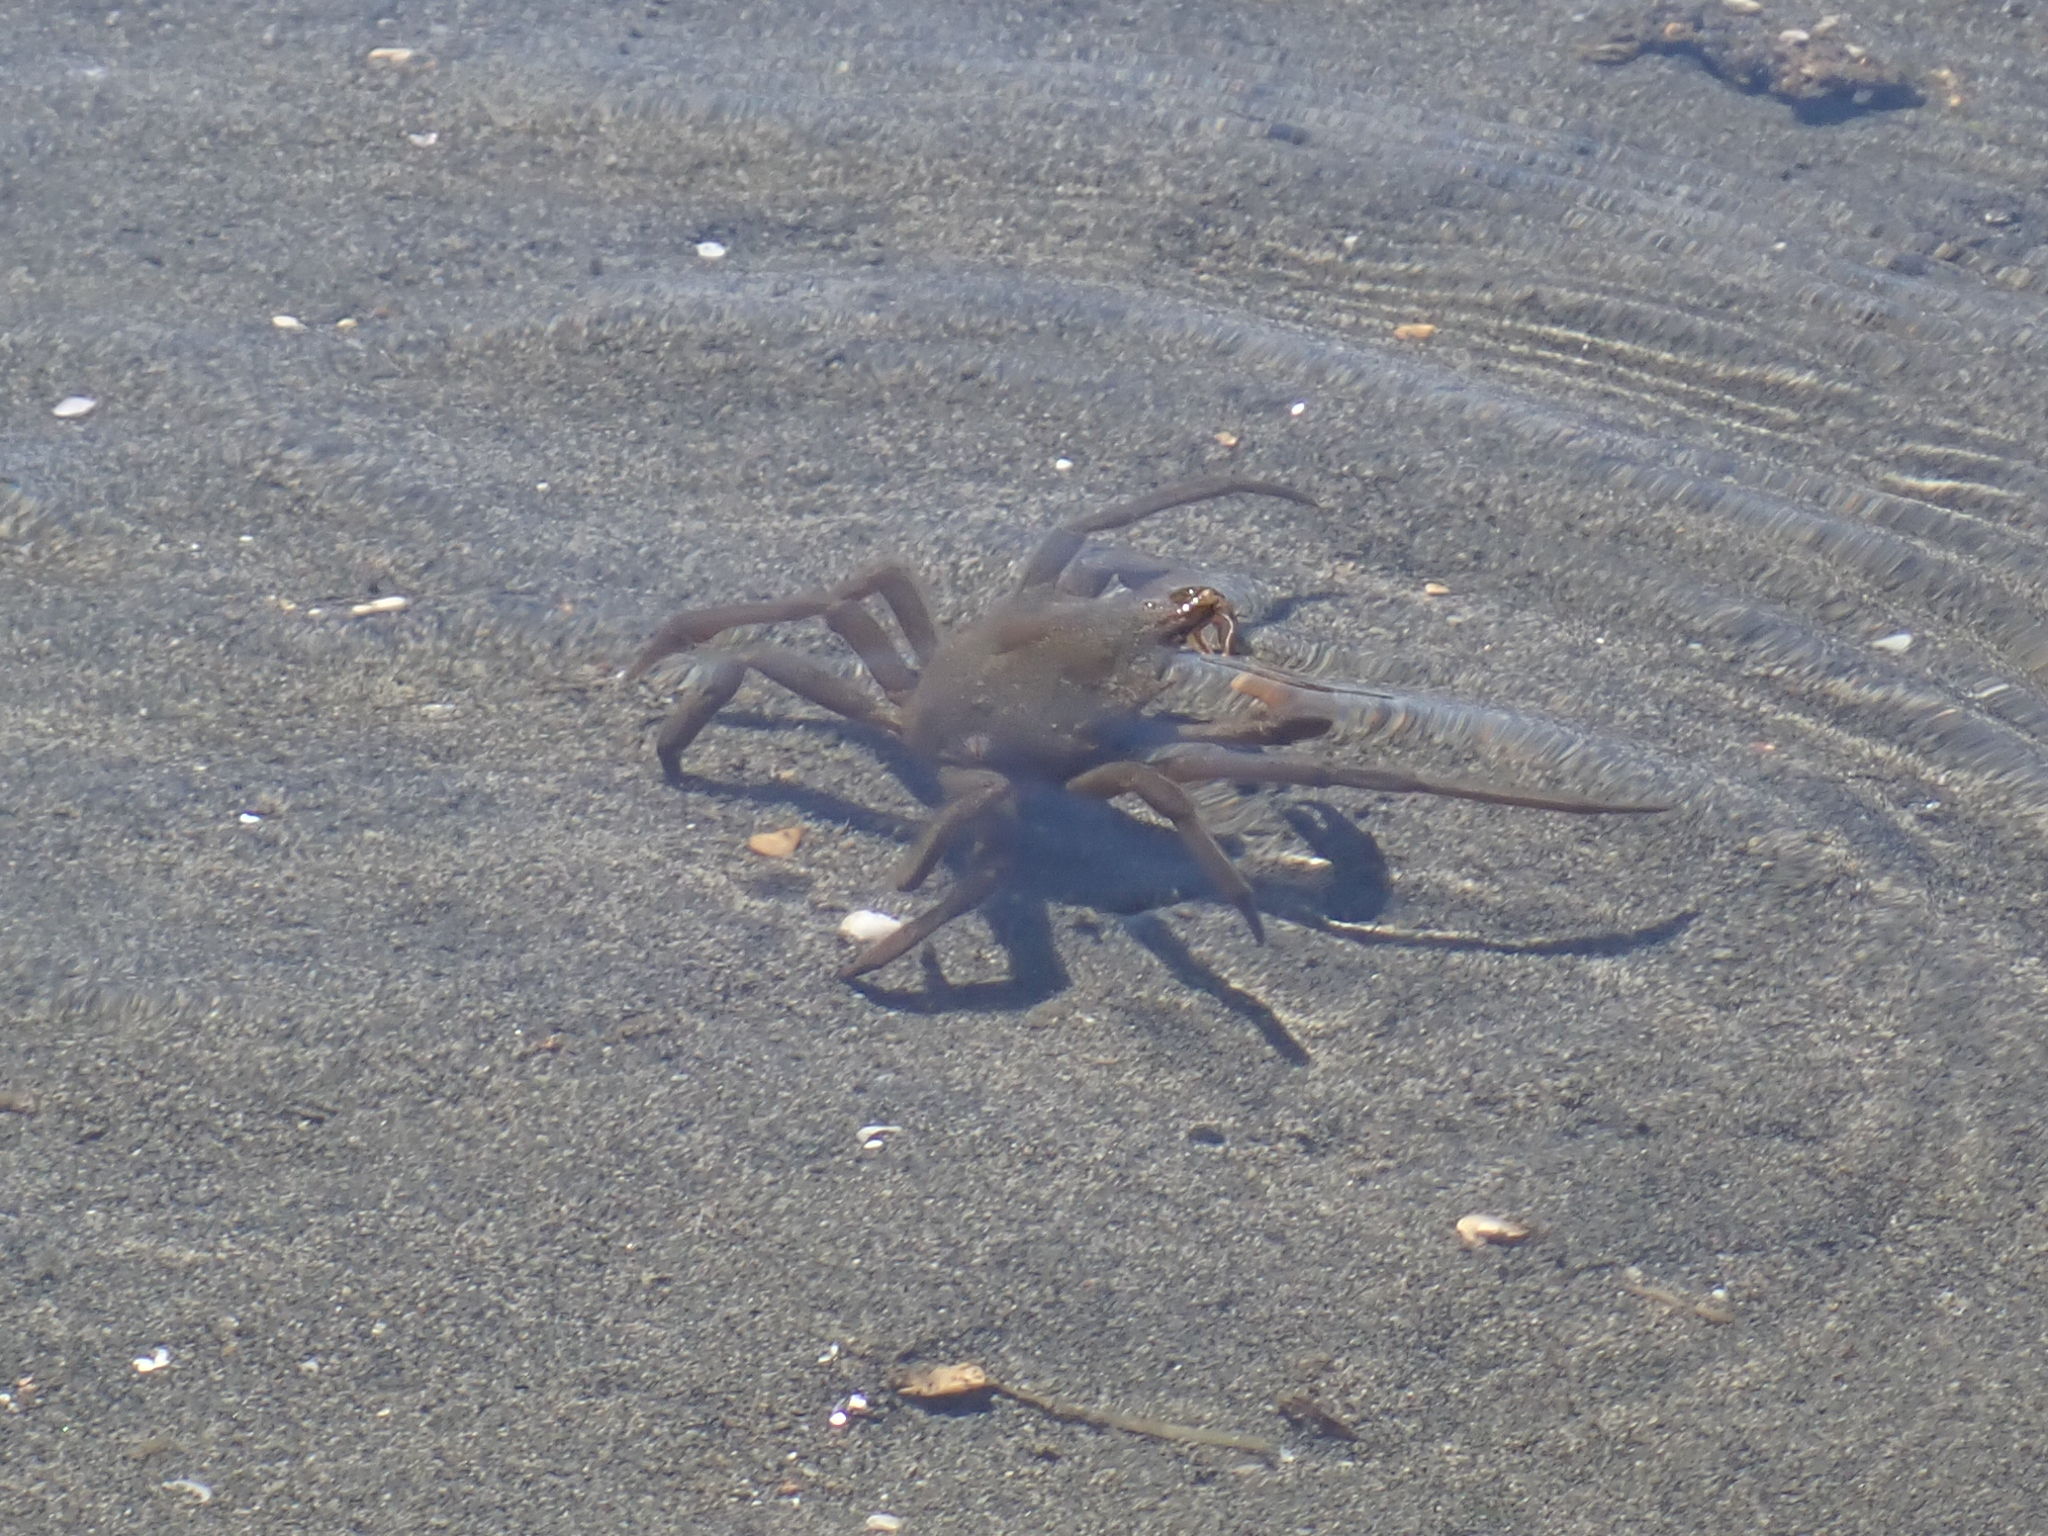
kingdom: Animalia
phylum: Arthropoda
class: Malacostraca
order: Decapoda
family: Epialtidae
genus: Pugettia
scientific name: Pugettia producta
